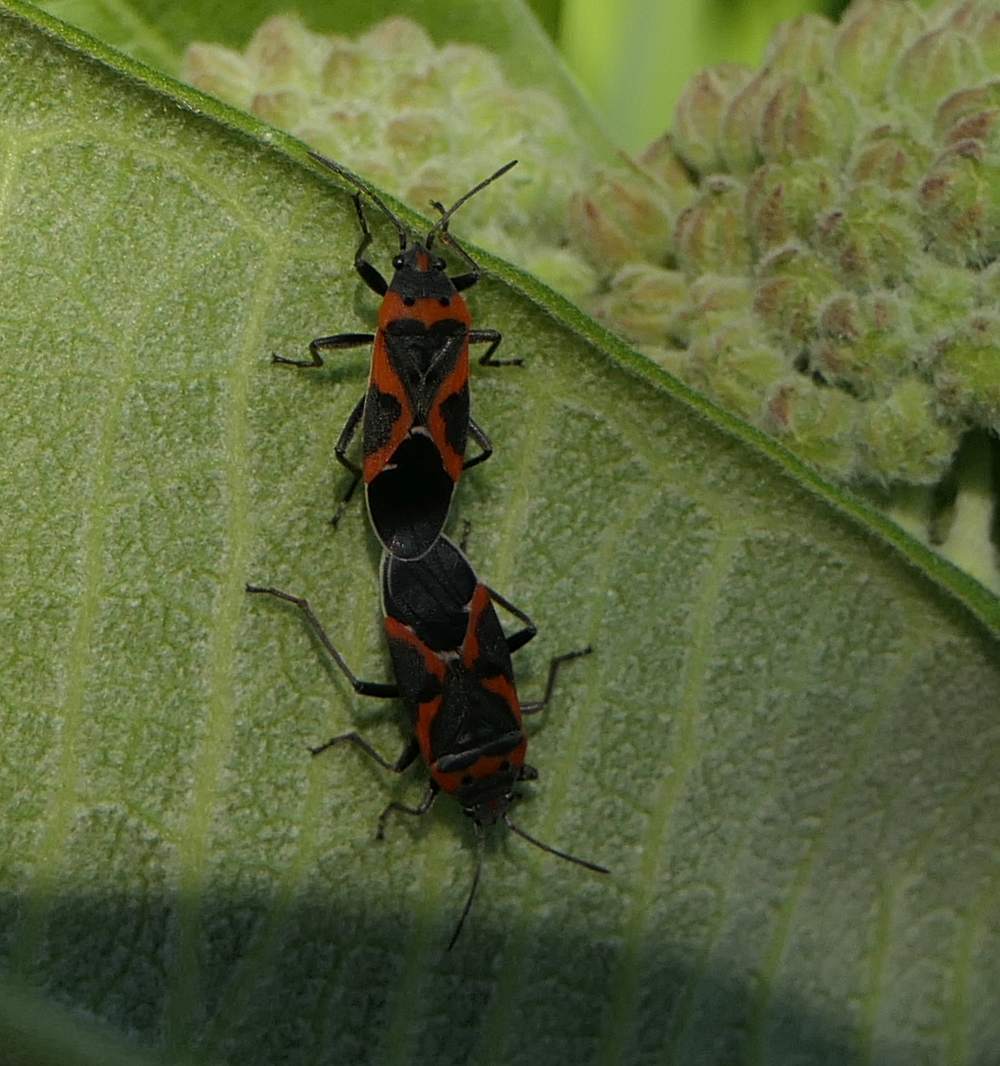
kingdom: Animalia
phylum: Arthropoda
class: Insecta
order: Hemiptera
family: Lygaeidae
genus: Lygaeus
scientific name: Lygaeus kalmii
